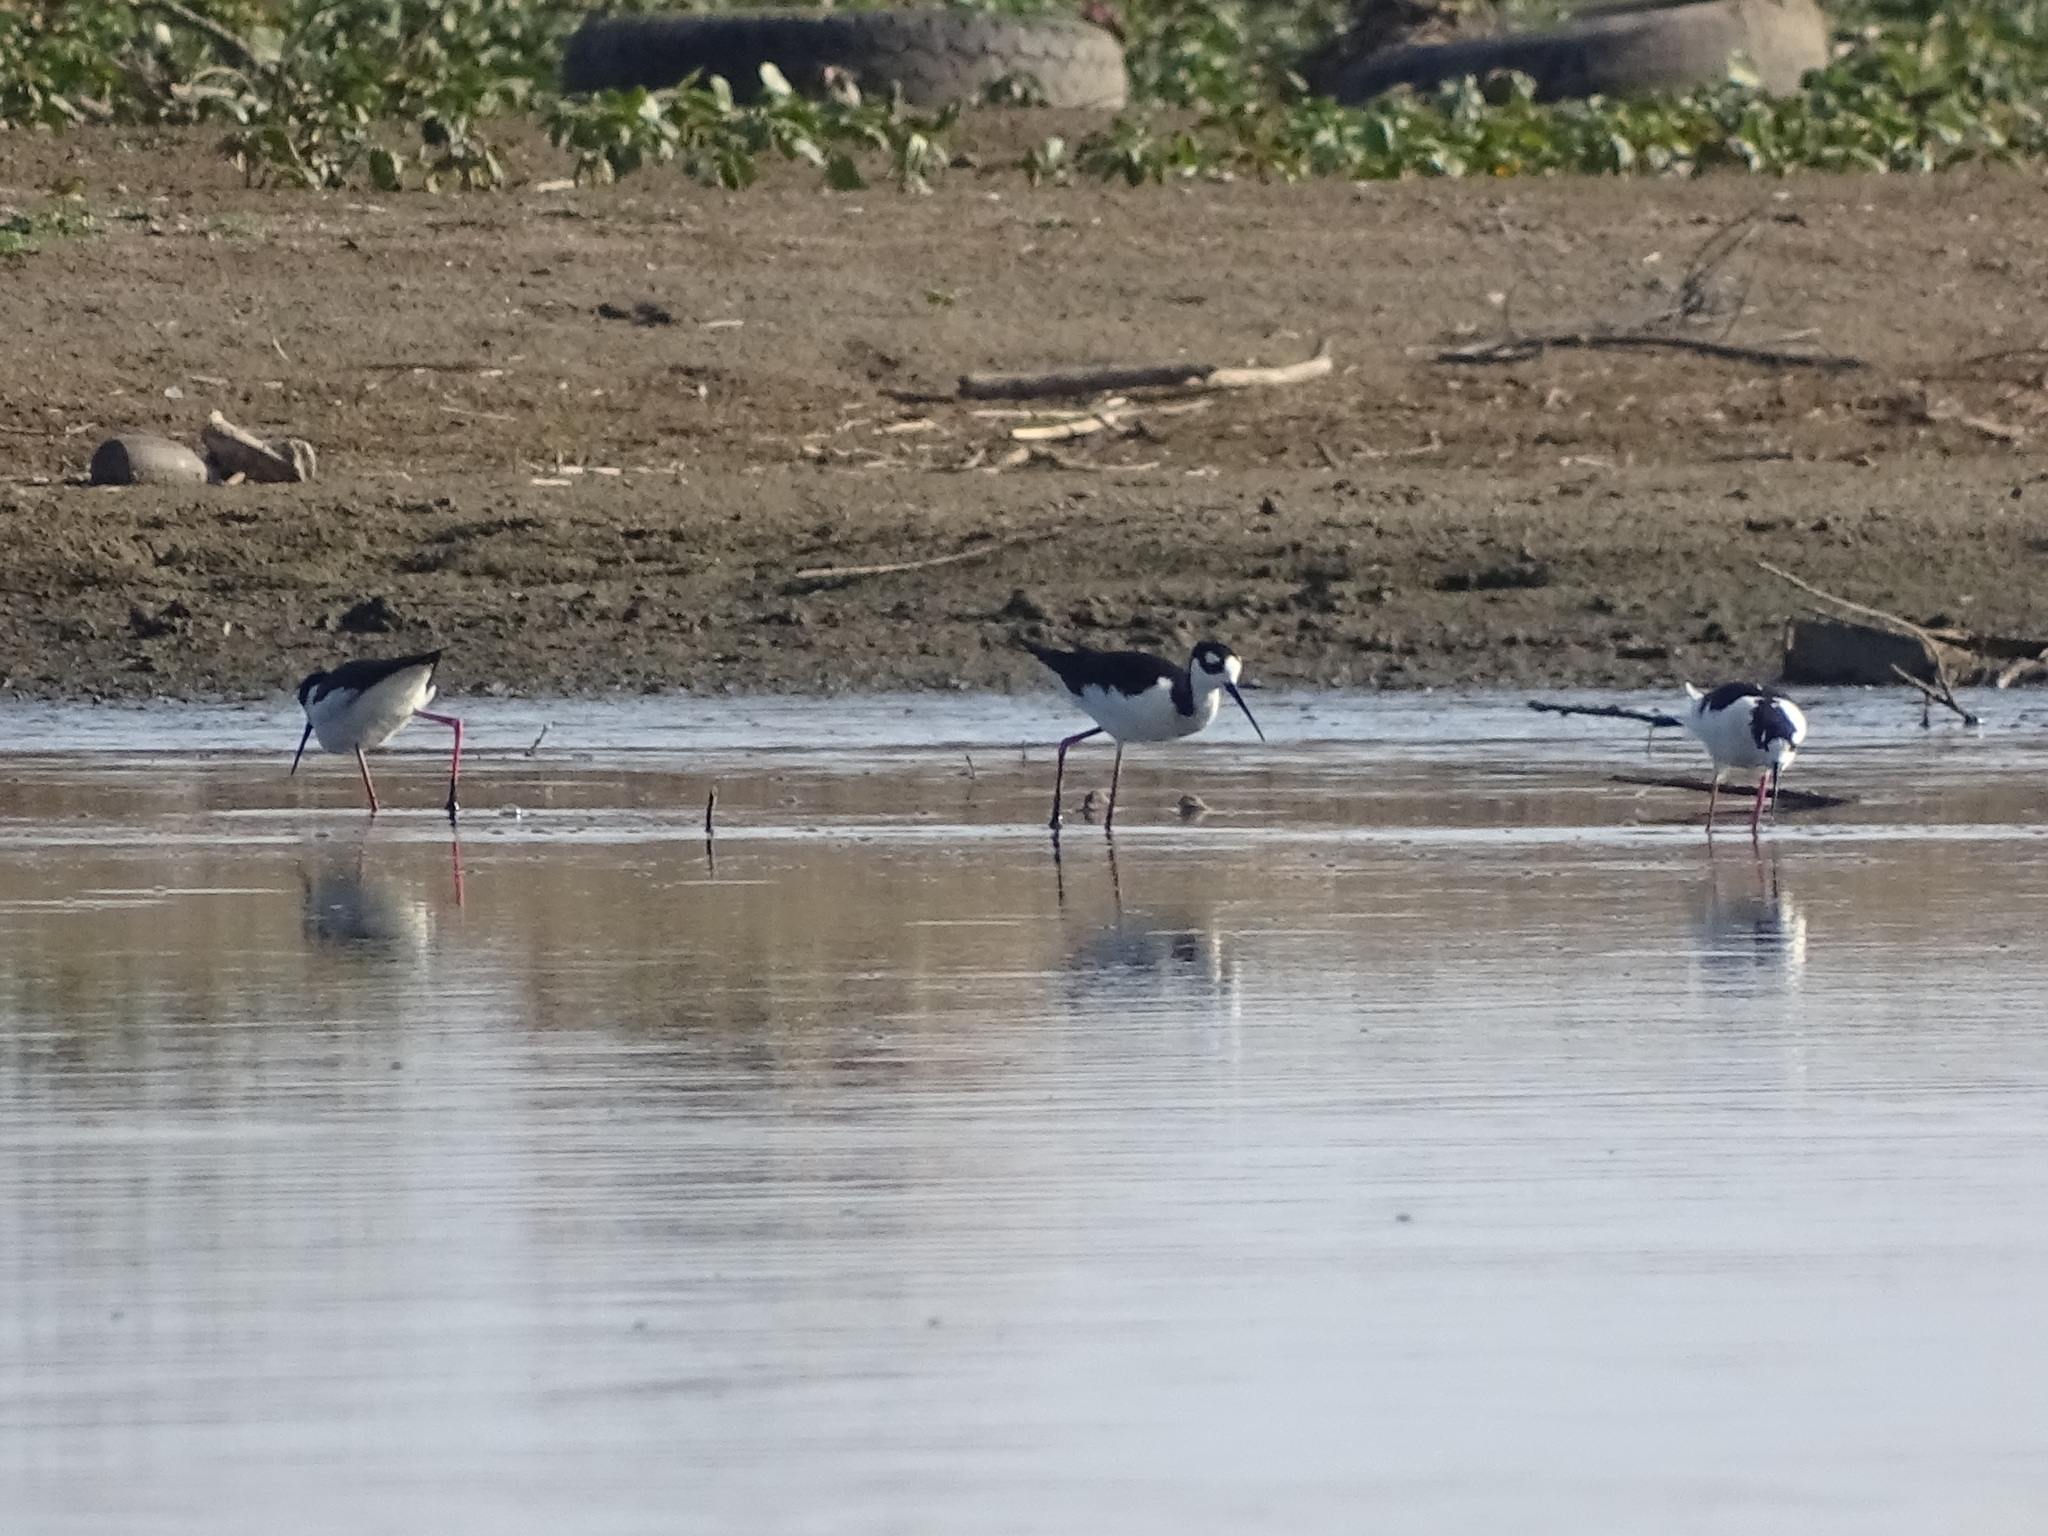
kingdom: Animalia
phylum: Chordata
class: Aves
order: Charadriiformes
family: Recurvirostridae
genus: Himantopus
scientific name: Himantopus mexicanus
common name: Black-necked stilt
